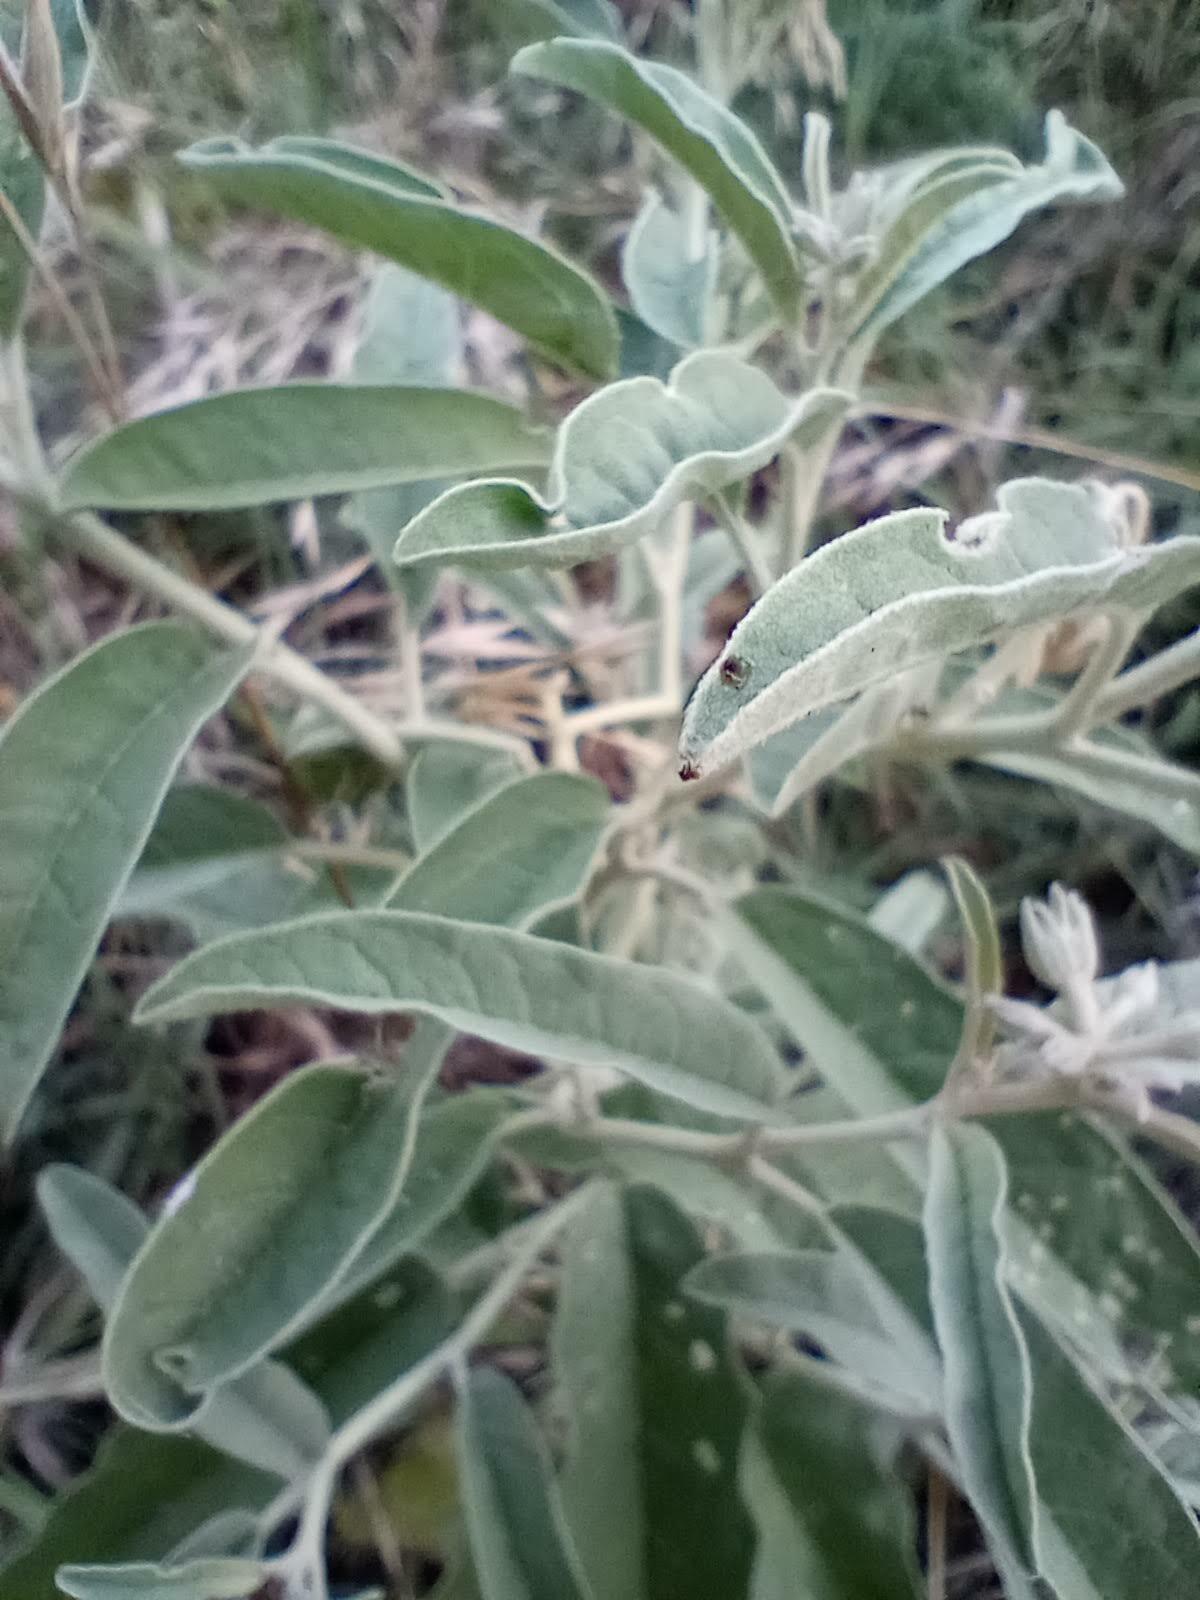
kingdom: Plantae
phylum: Tracheophyta
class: Magnoliopsida
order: Solanales
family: Solanaceae
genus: Solanum
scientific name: Solanum elaeagnifolium
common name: Silverleaf nightshade
